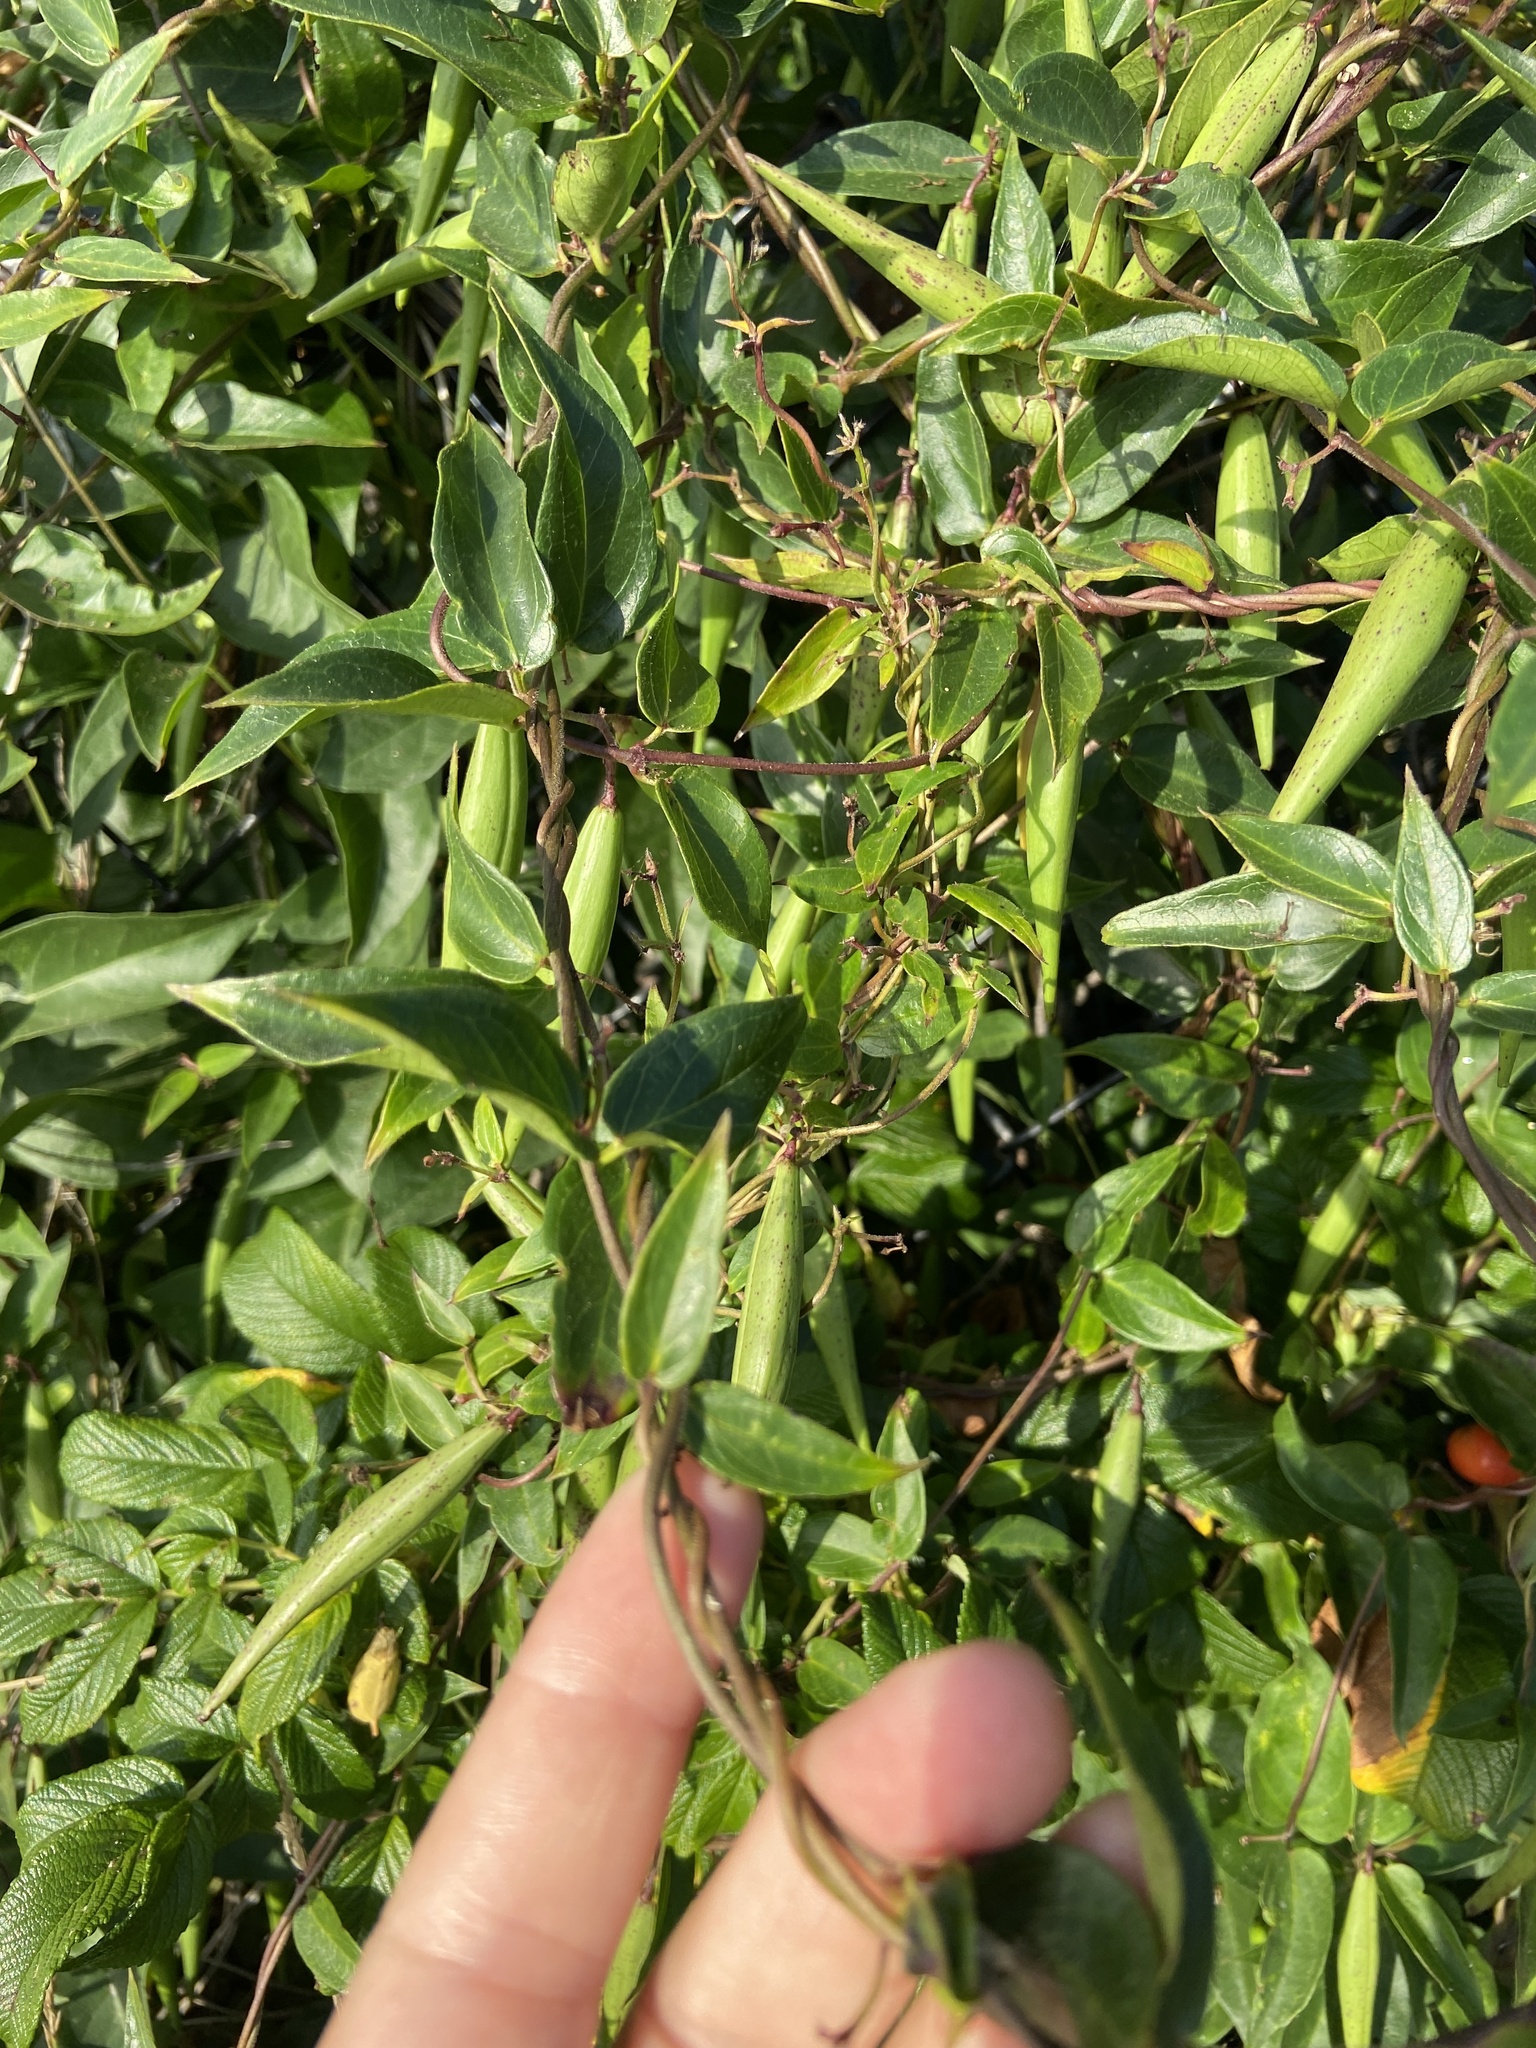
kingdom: Plantae
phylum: Tracheophyta
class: Magnoliopsida
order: Gentianales
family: Apocynaceae
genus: Vincetoxicum
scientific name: Vincetoxicum nigrum
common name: Black swallow-wort
